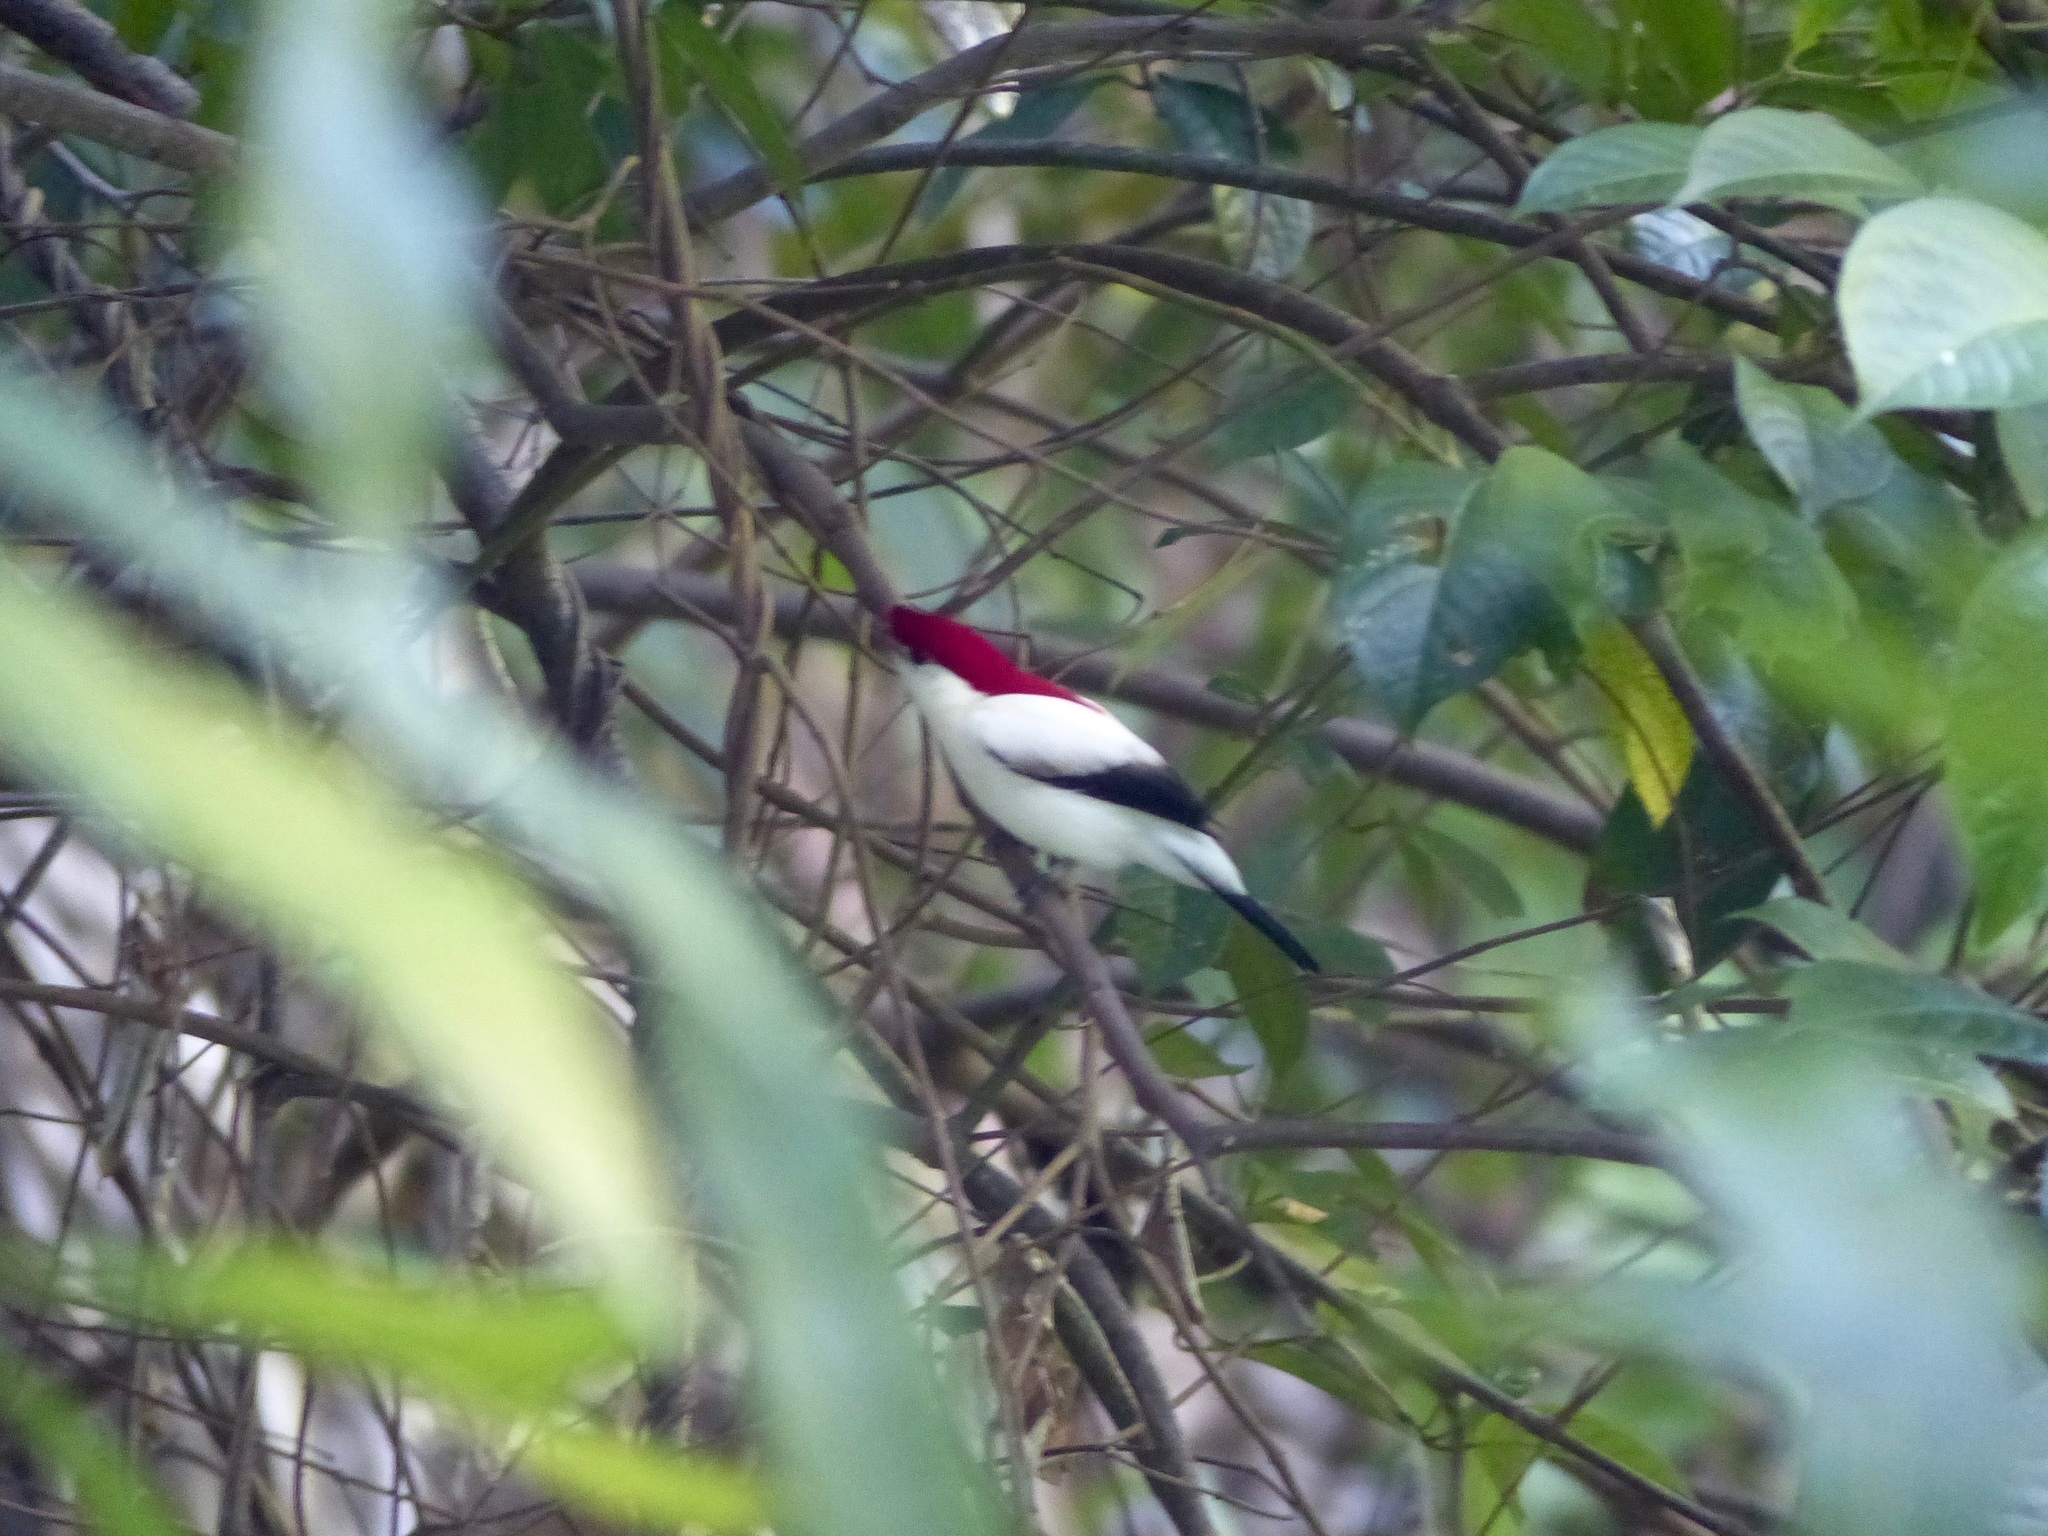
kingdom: Animalia
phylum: Chordata
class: Aves
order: Passeriformes
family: Pipridae
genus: Antilophia
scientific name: Antilophia bokermanni
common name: Araripe manakin
